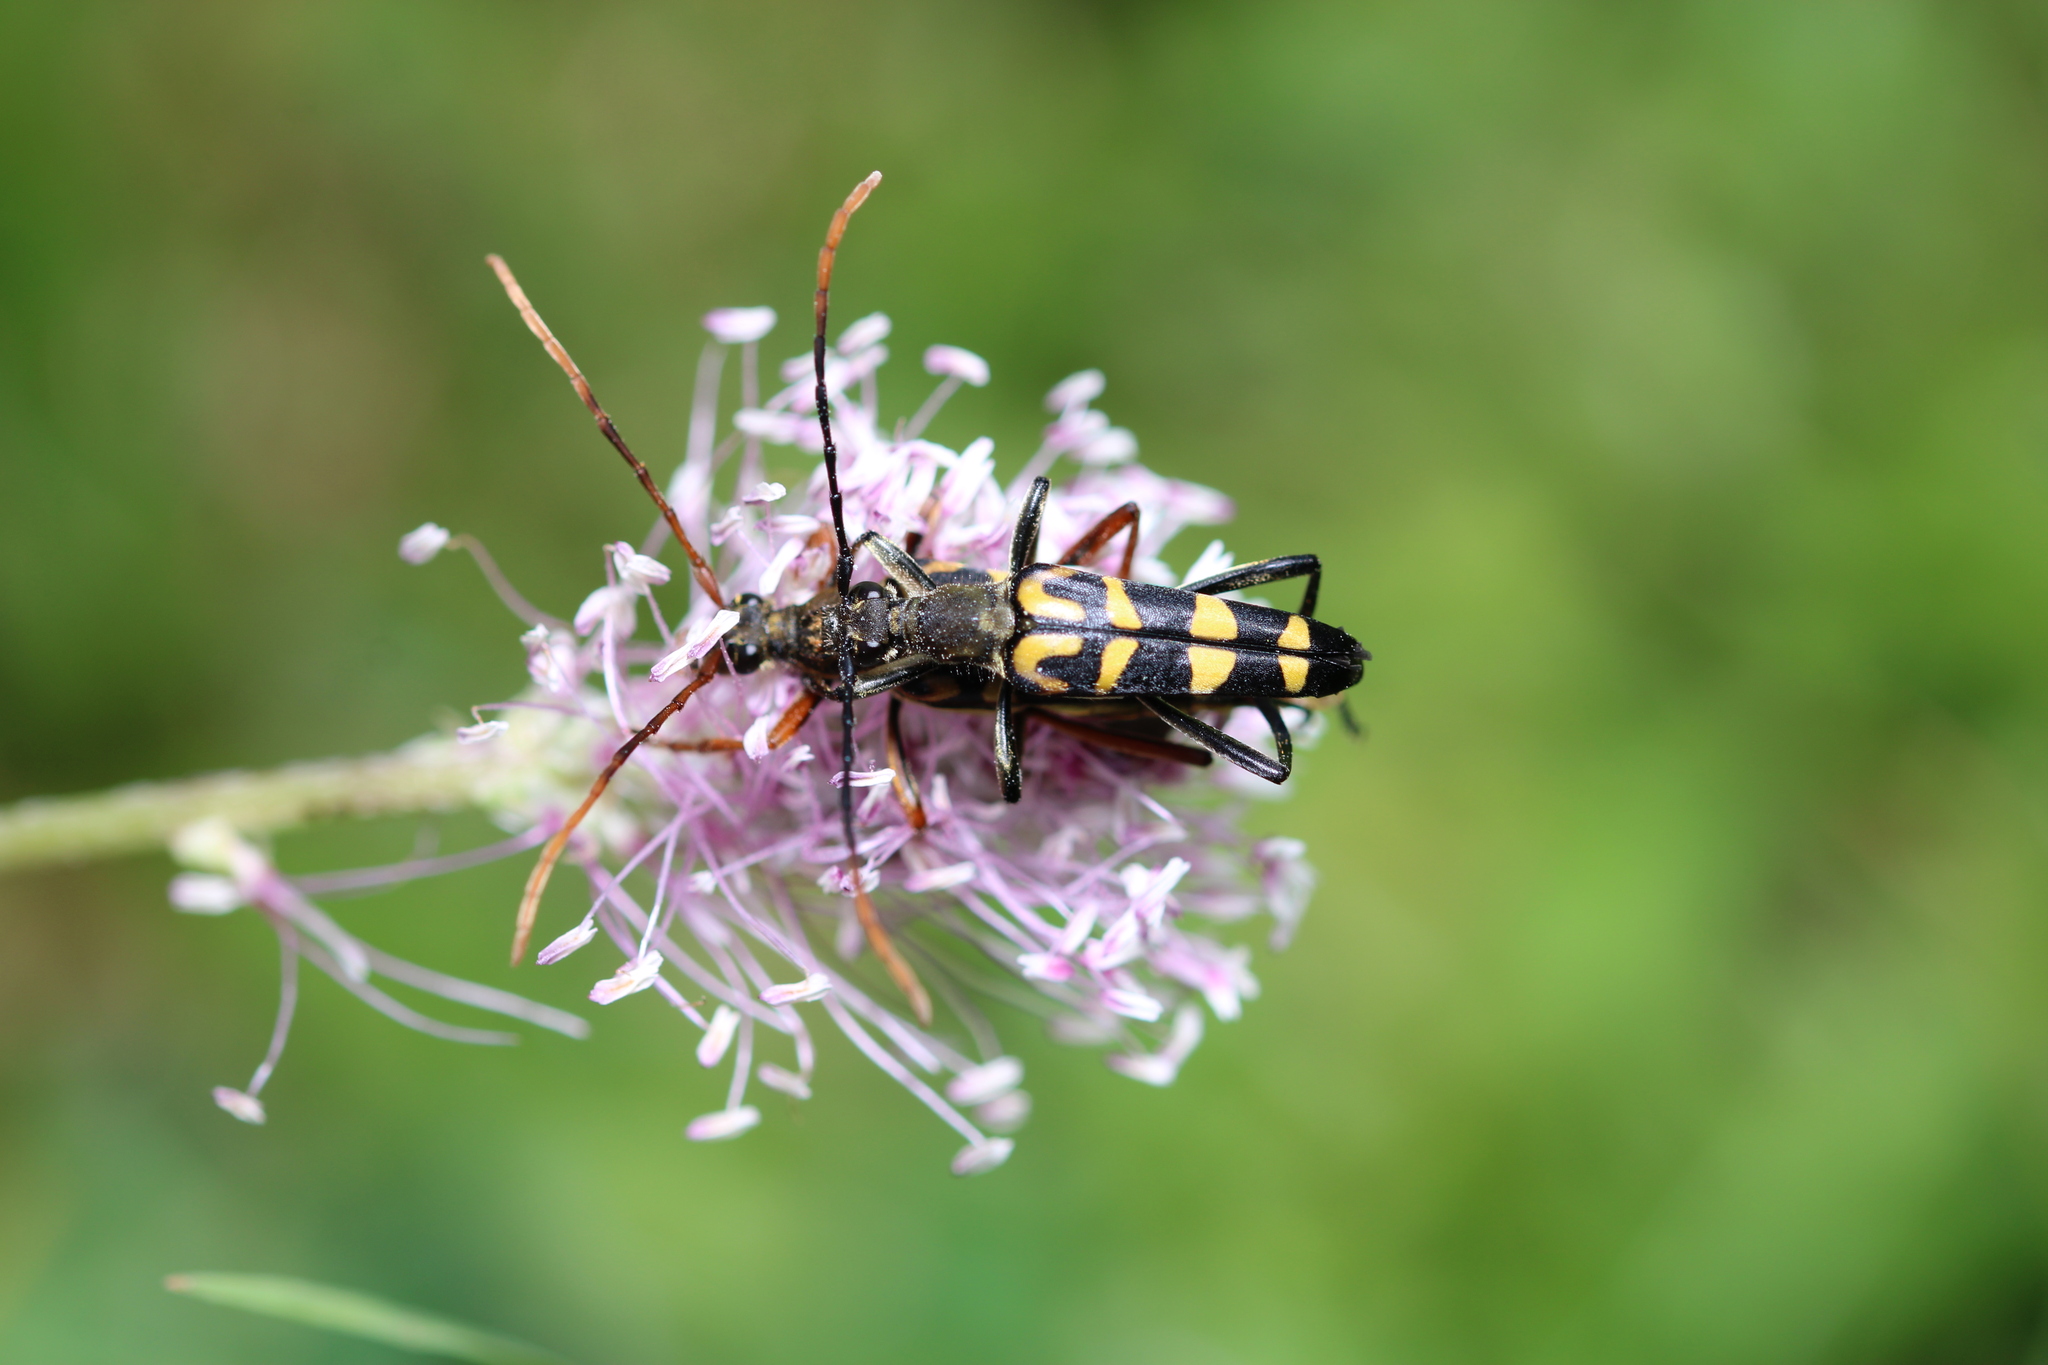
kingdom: Animalia
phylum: Arthropoda
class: Insecta
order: Coleoptera
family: Cerambycidae
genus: Leptura
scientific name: Leptura annularis
